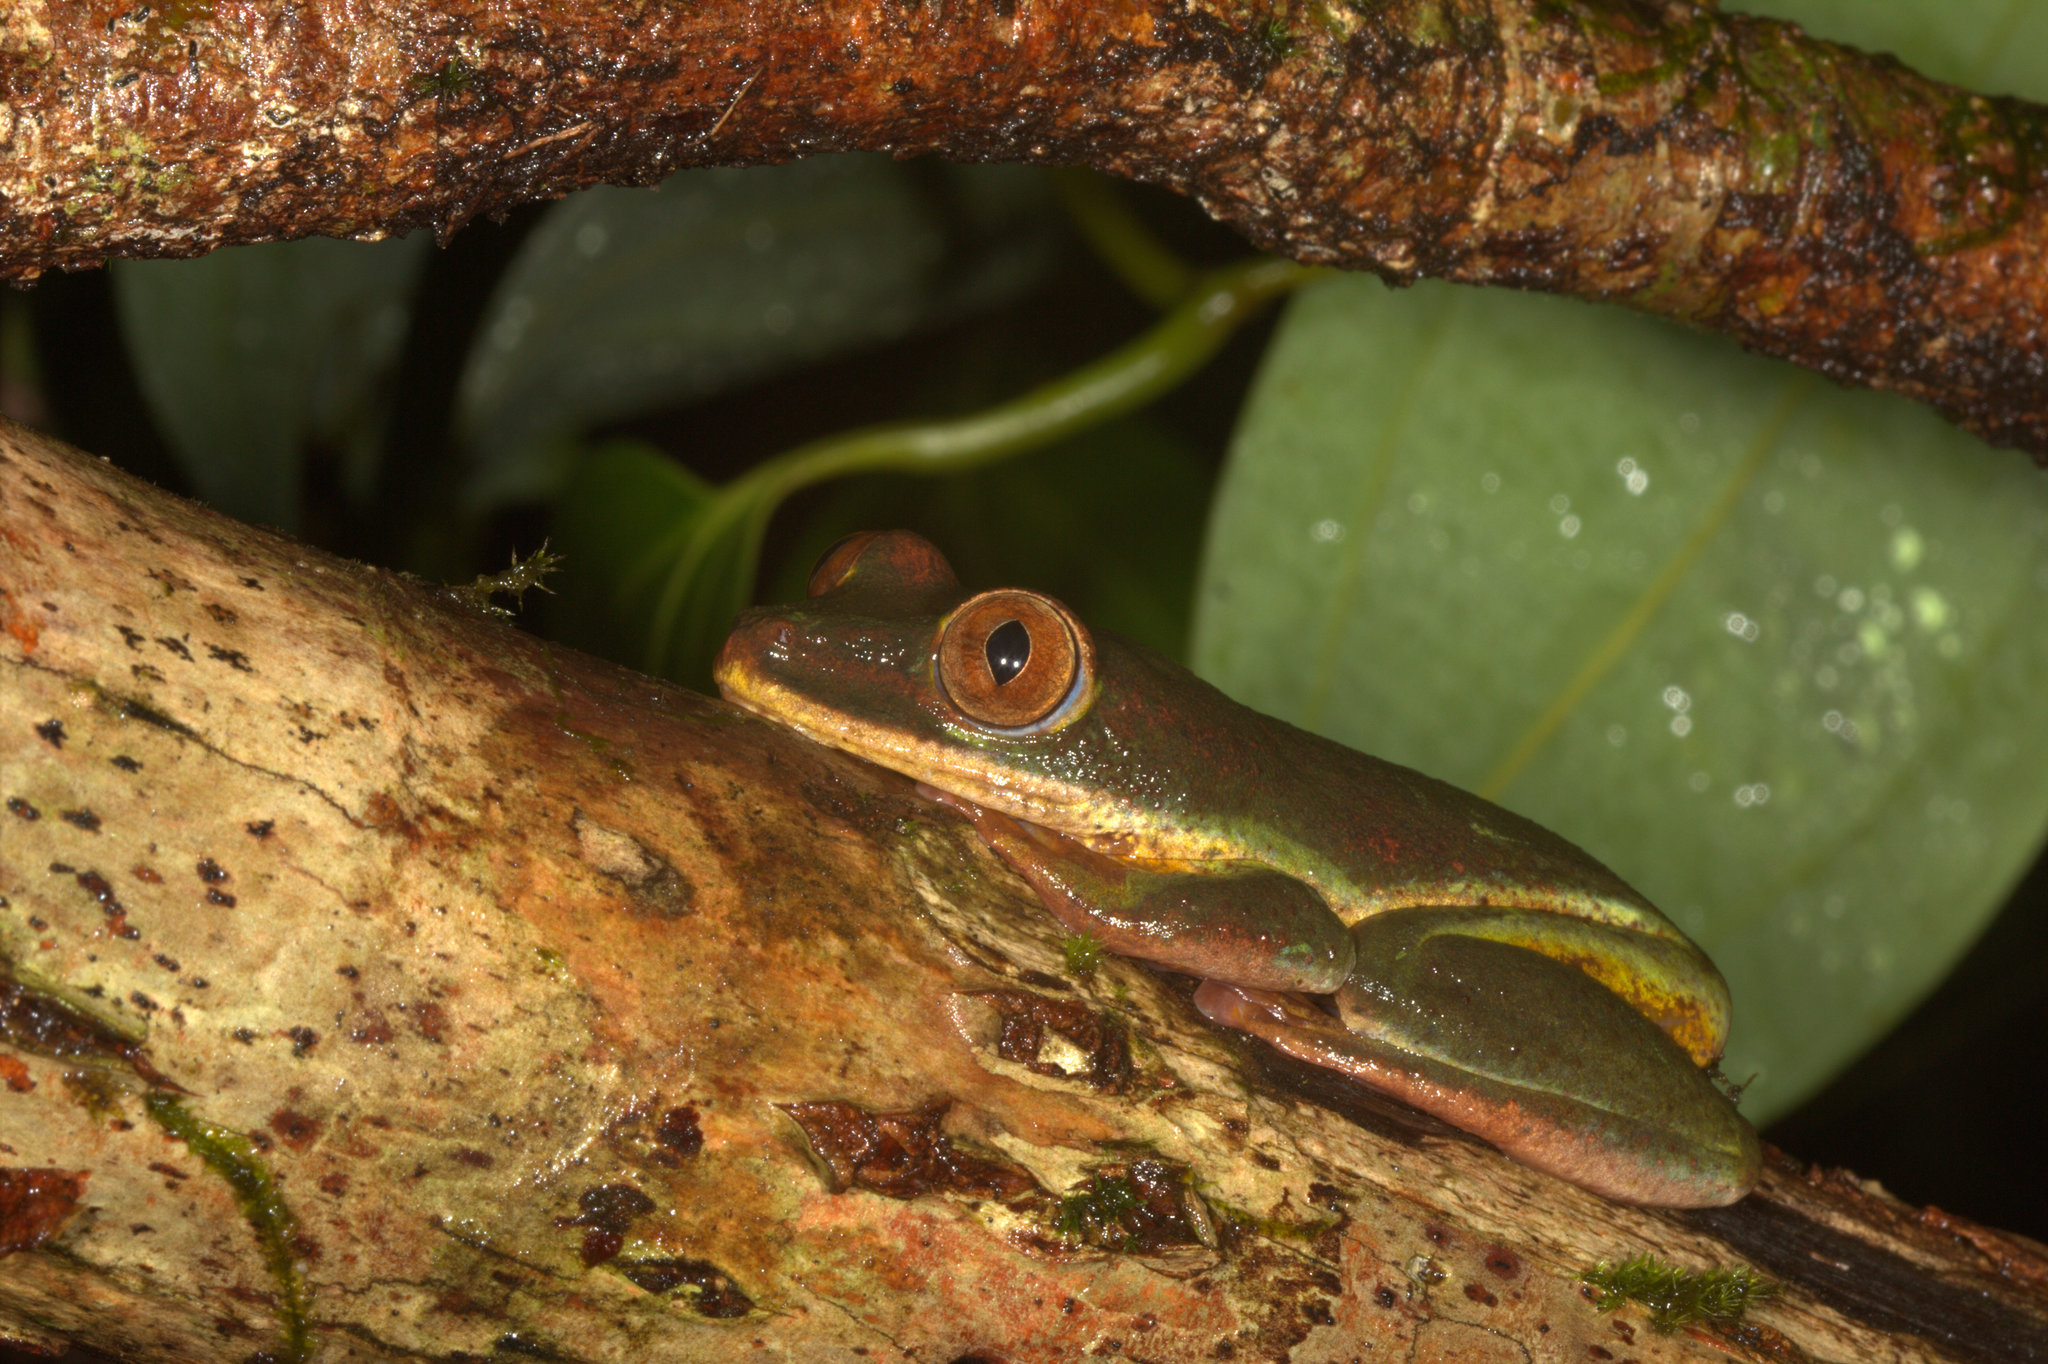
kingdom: Animalia
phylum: Chordata
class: Amphibia
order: Anura
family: Hyperoliidae
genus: Tachycnemis
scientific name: Tachycnemis seychellensis
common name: Seychelles treefrog
